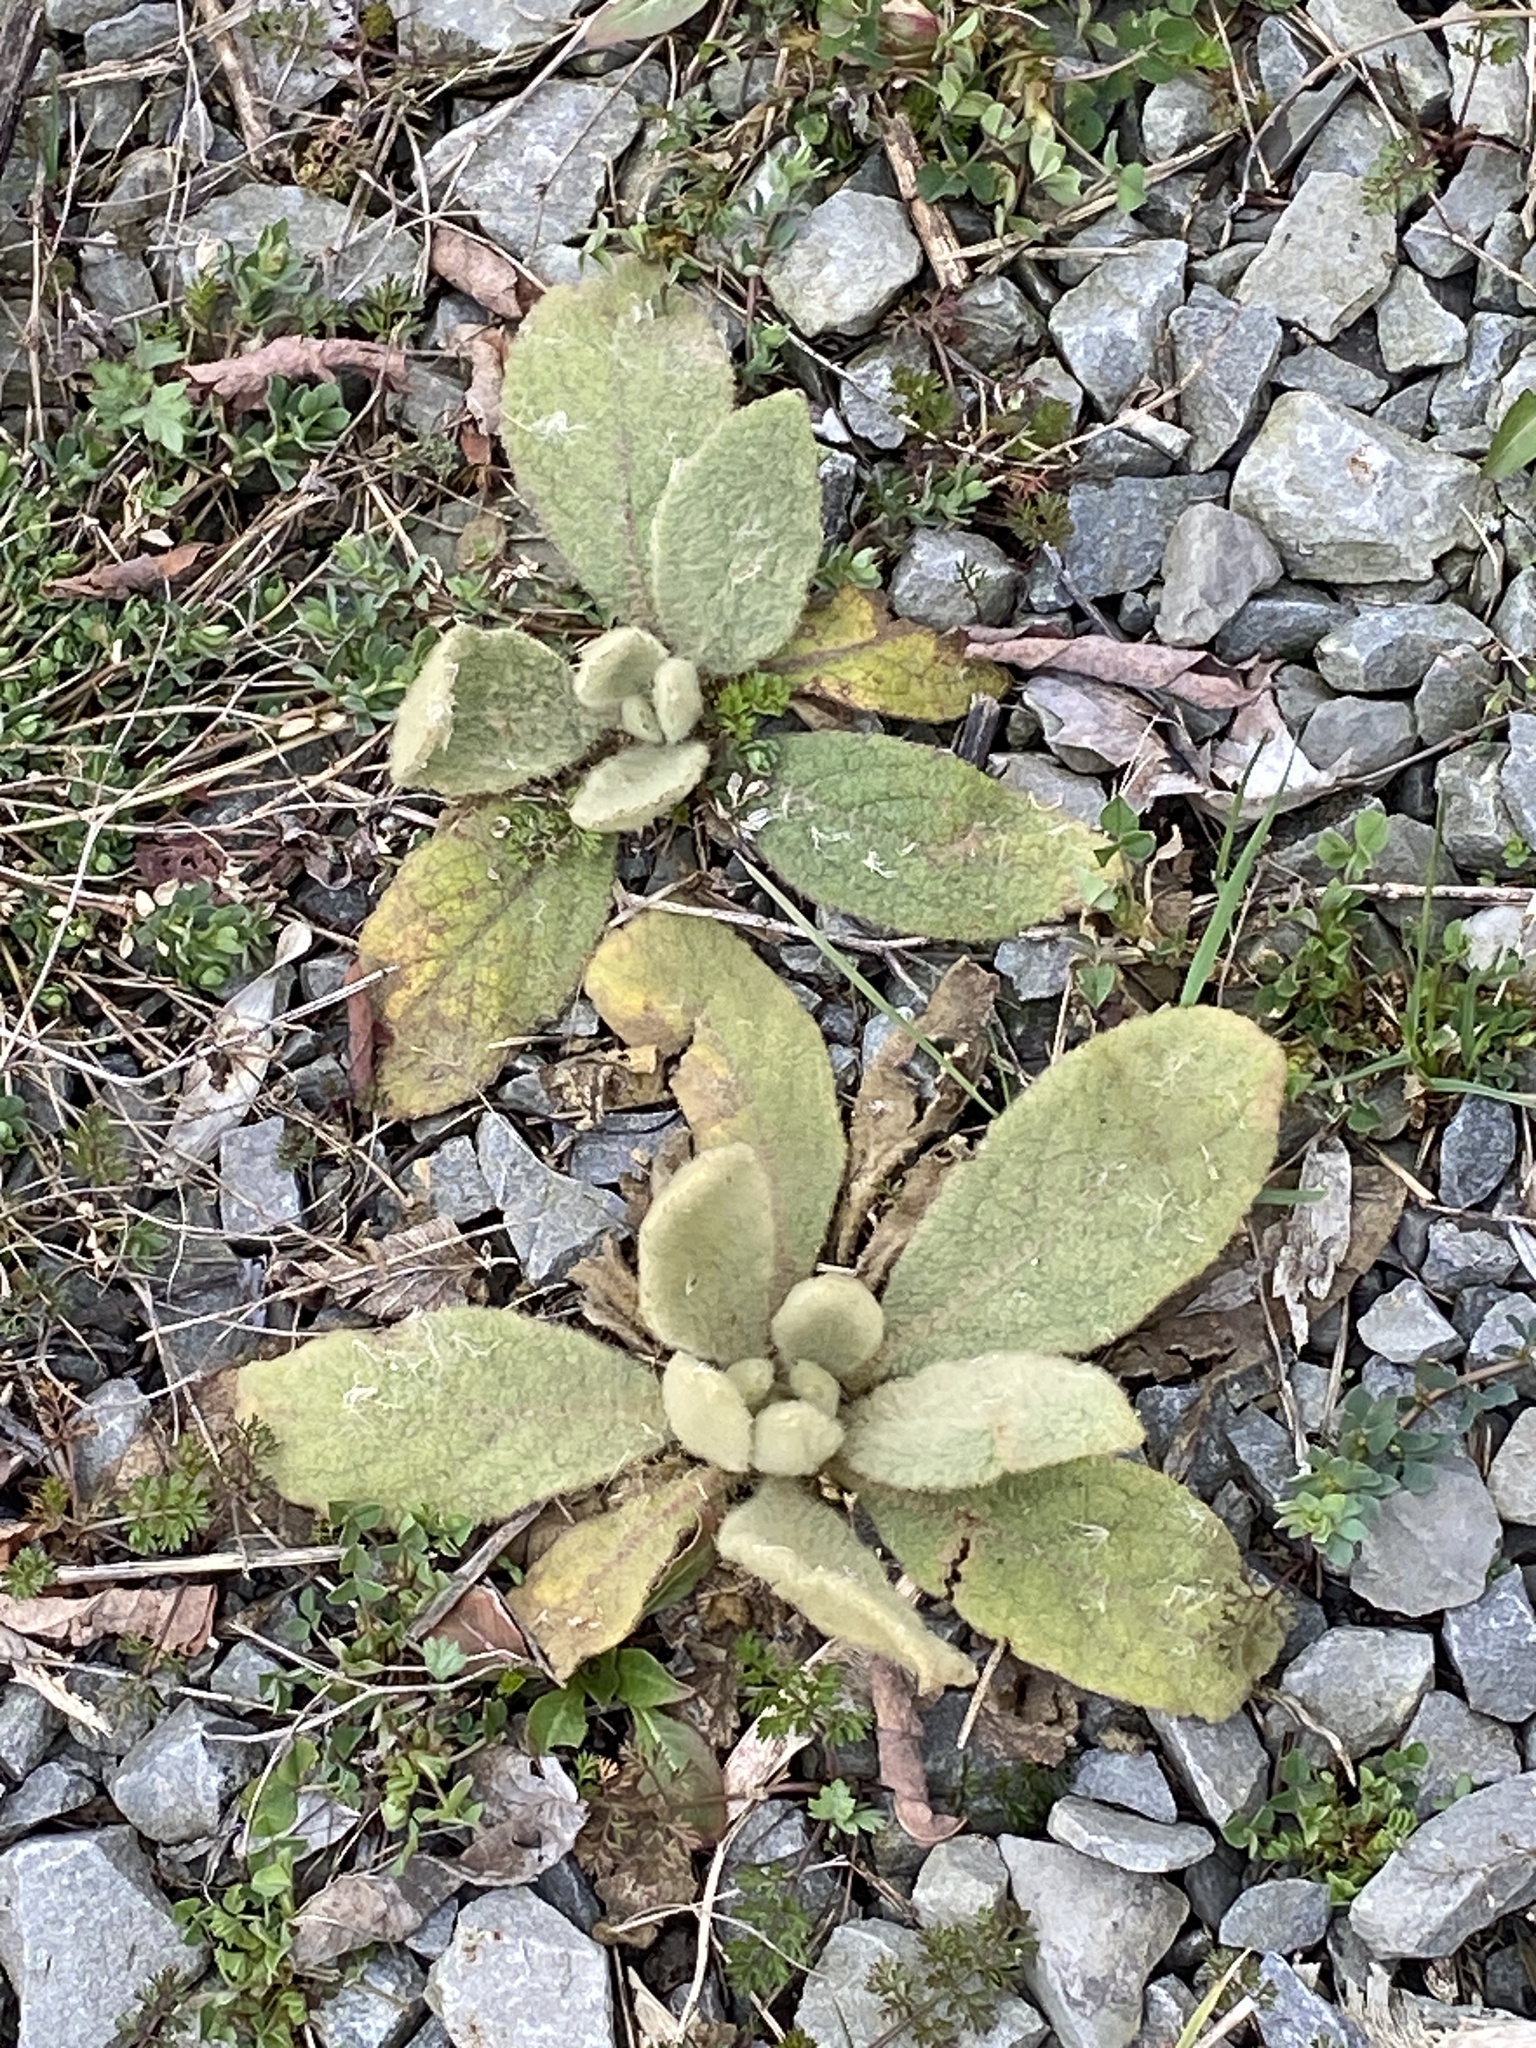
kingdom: Plantae
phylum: Tracheophyta
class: Magnoliopsida
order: Lamiales
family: Scrophulariaceae
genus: Verbascum
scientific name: Verbascum thapsus
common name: Common mullein
